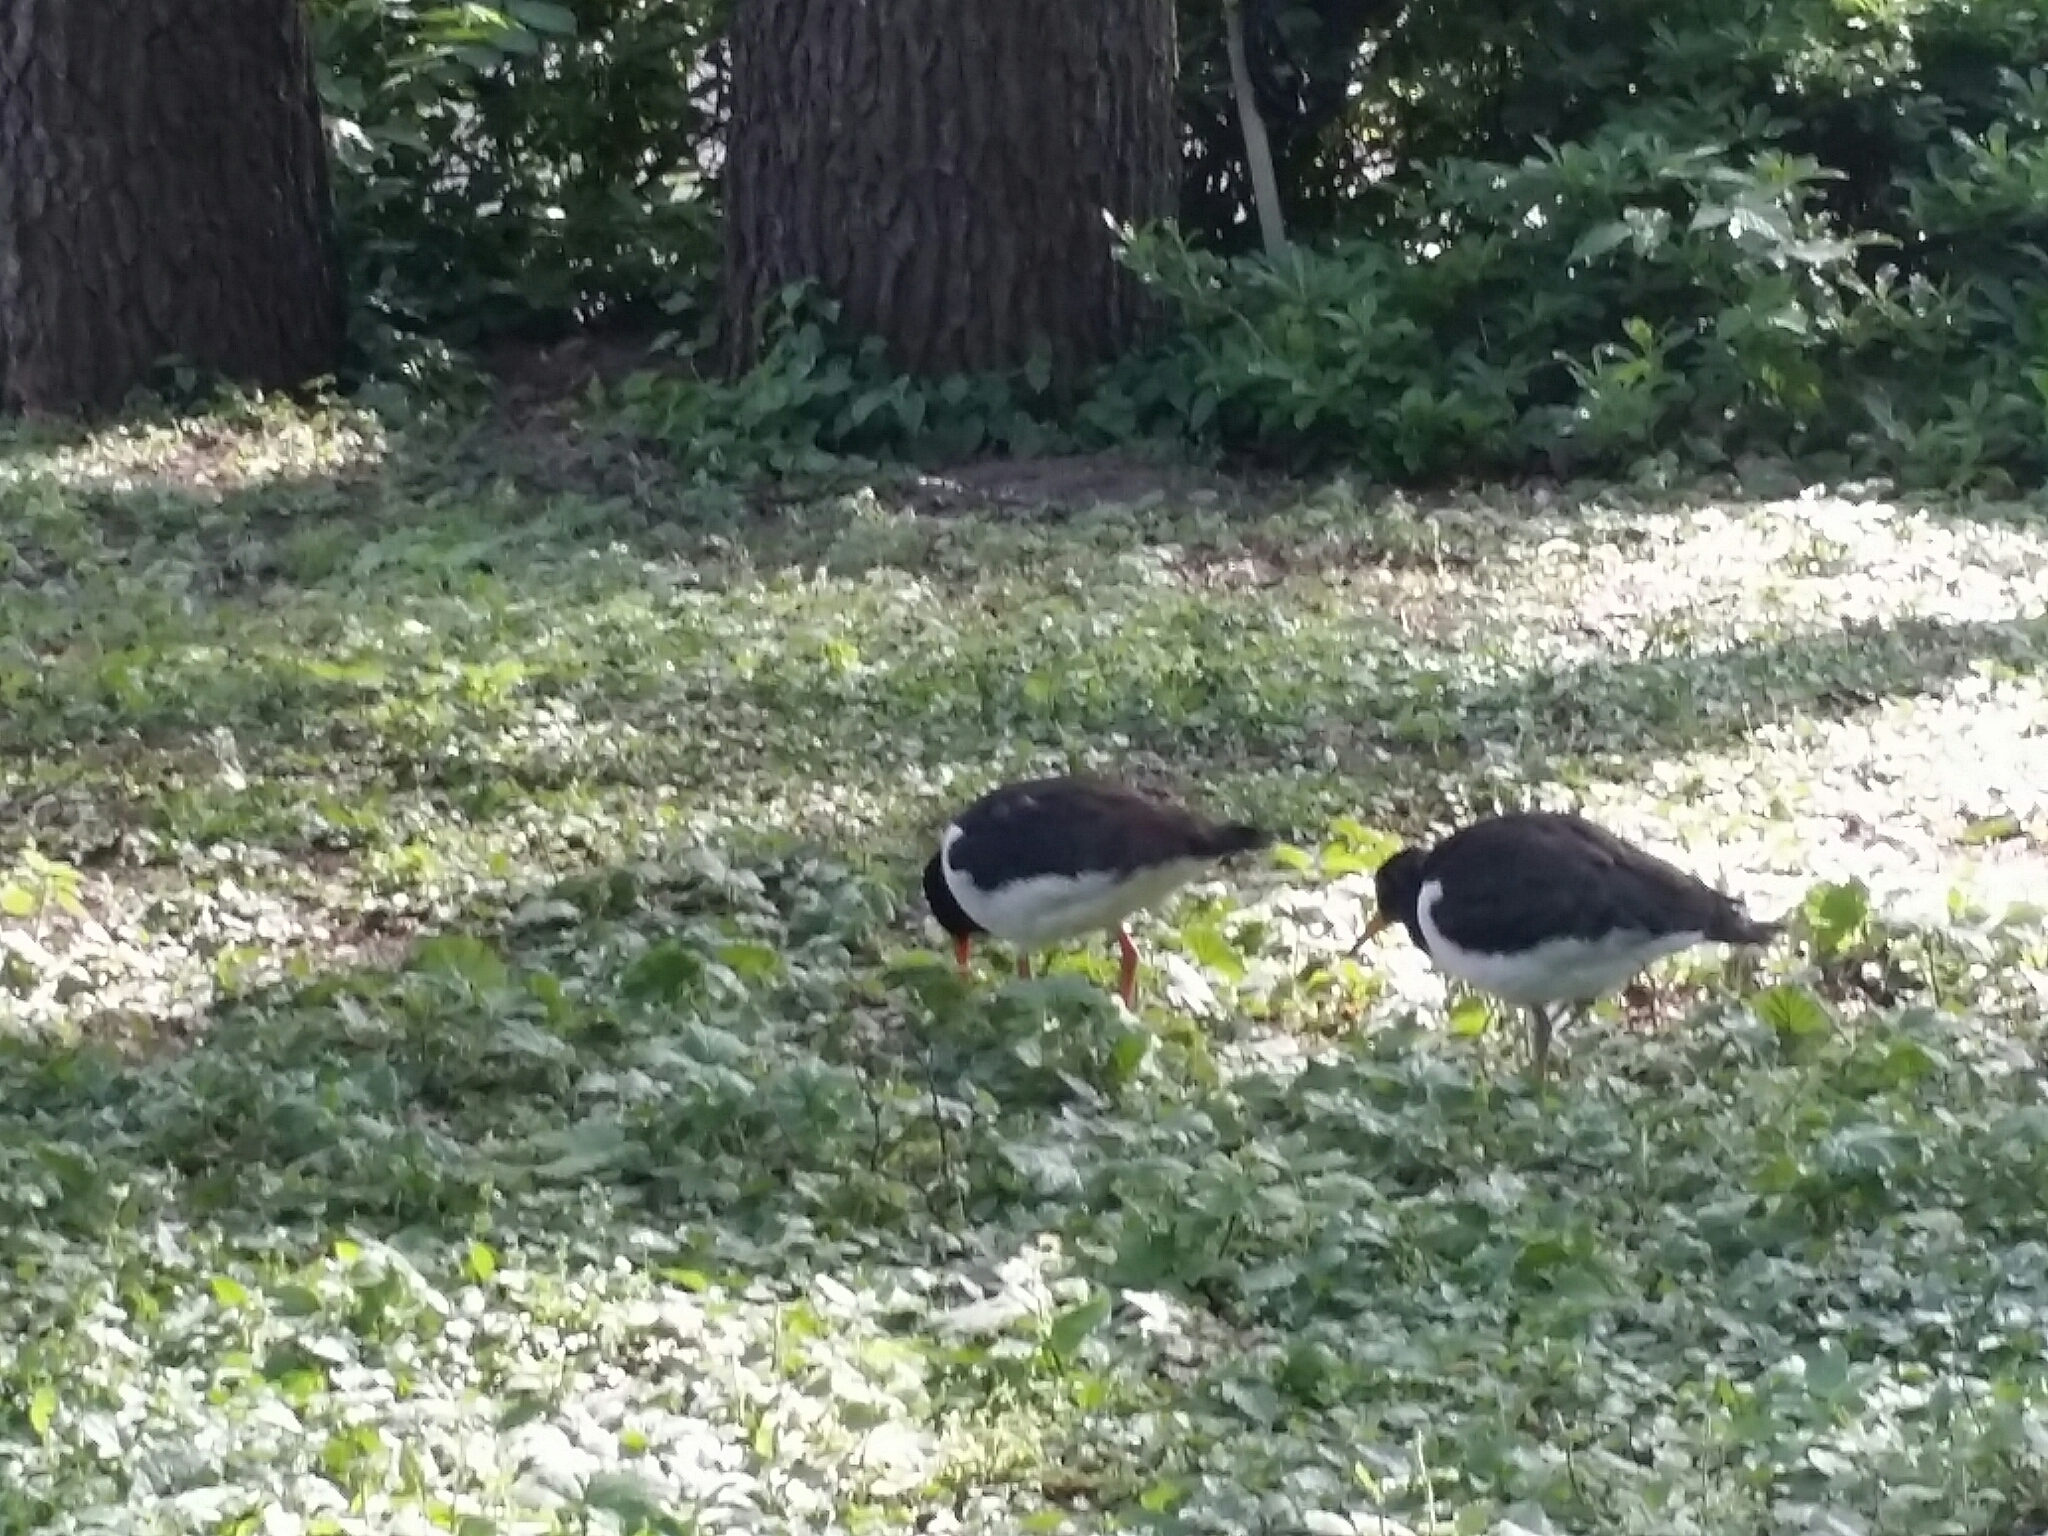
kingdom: Animalia
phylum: Chordata
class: Aves
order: Charadriiformes
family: Haematopodidae
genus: Haematopus
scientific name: Haematopus ostralegus
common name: Eurasian oystercatcher
